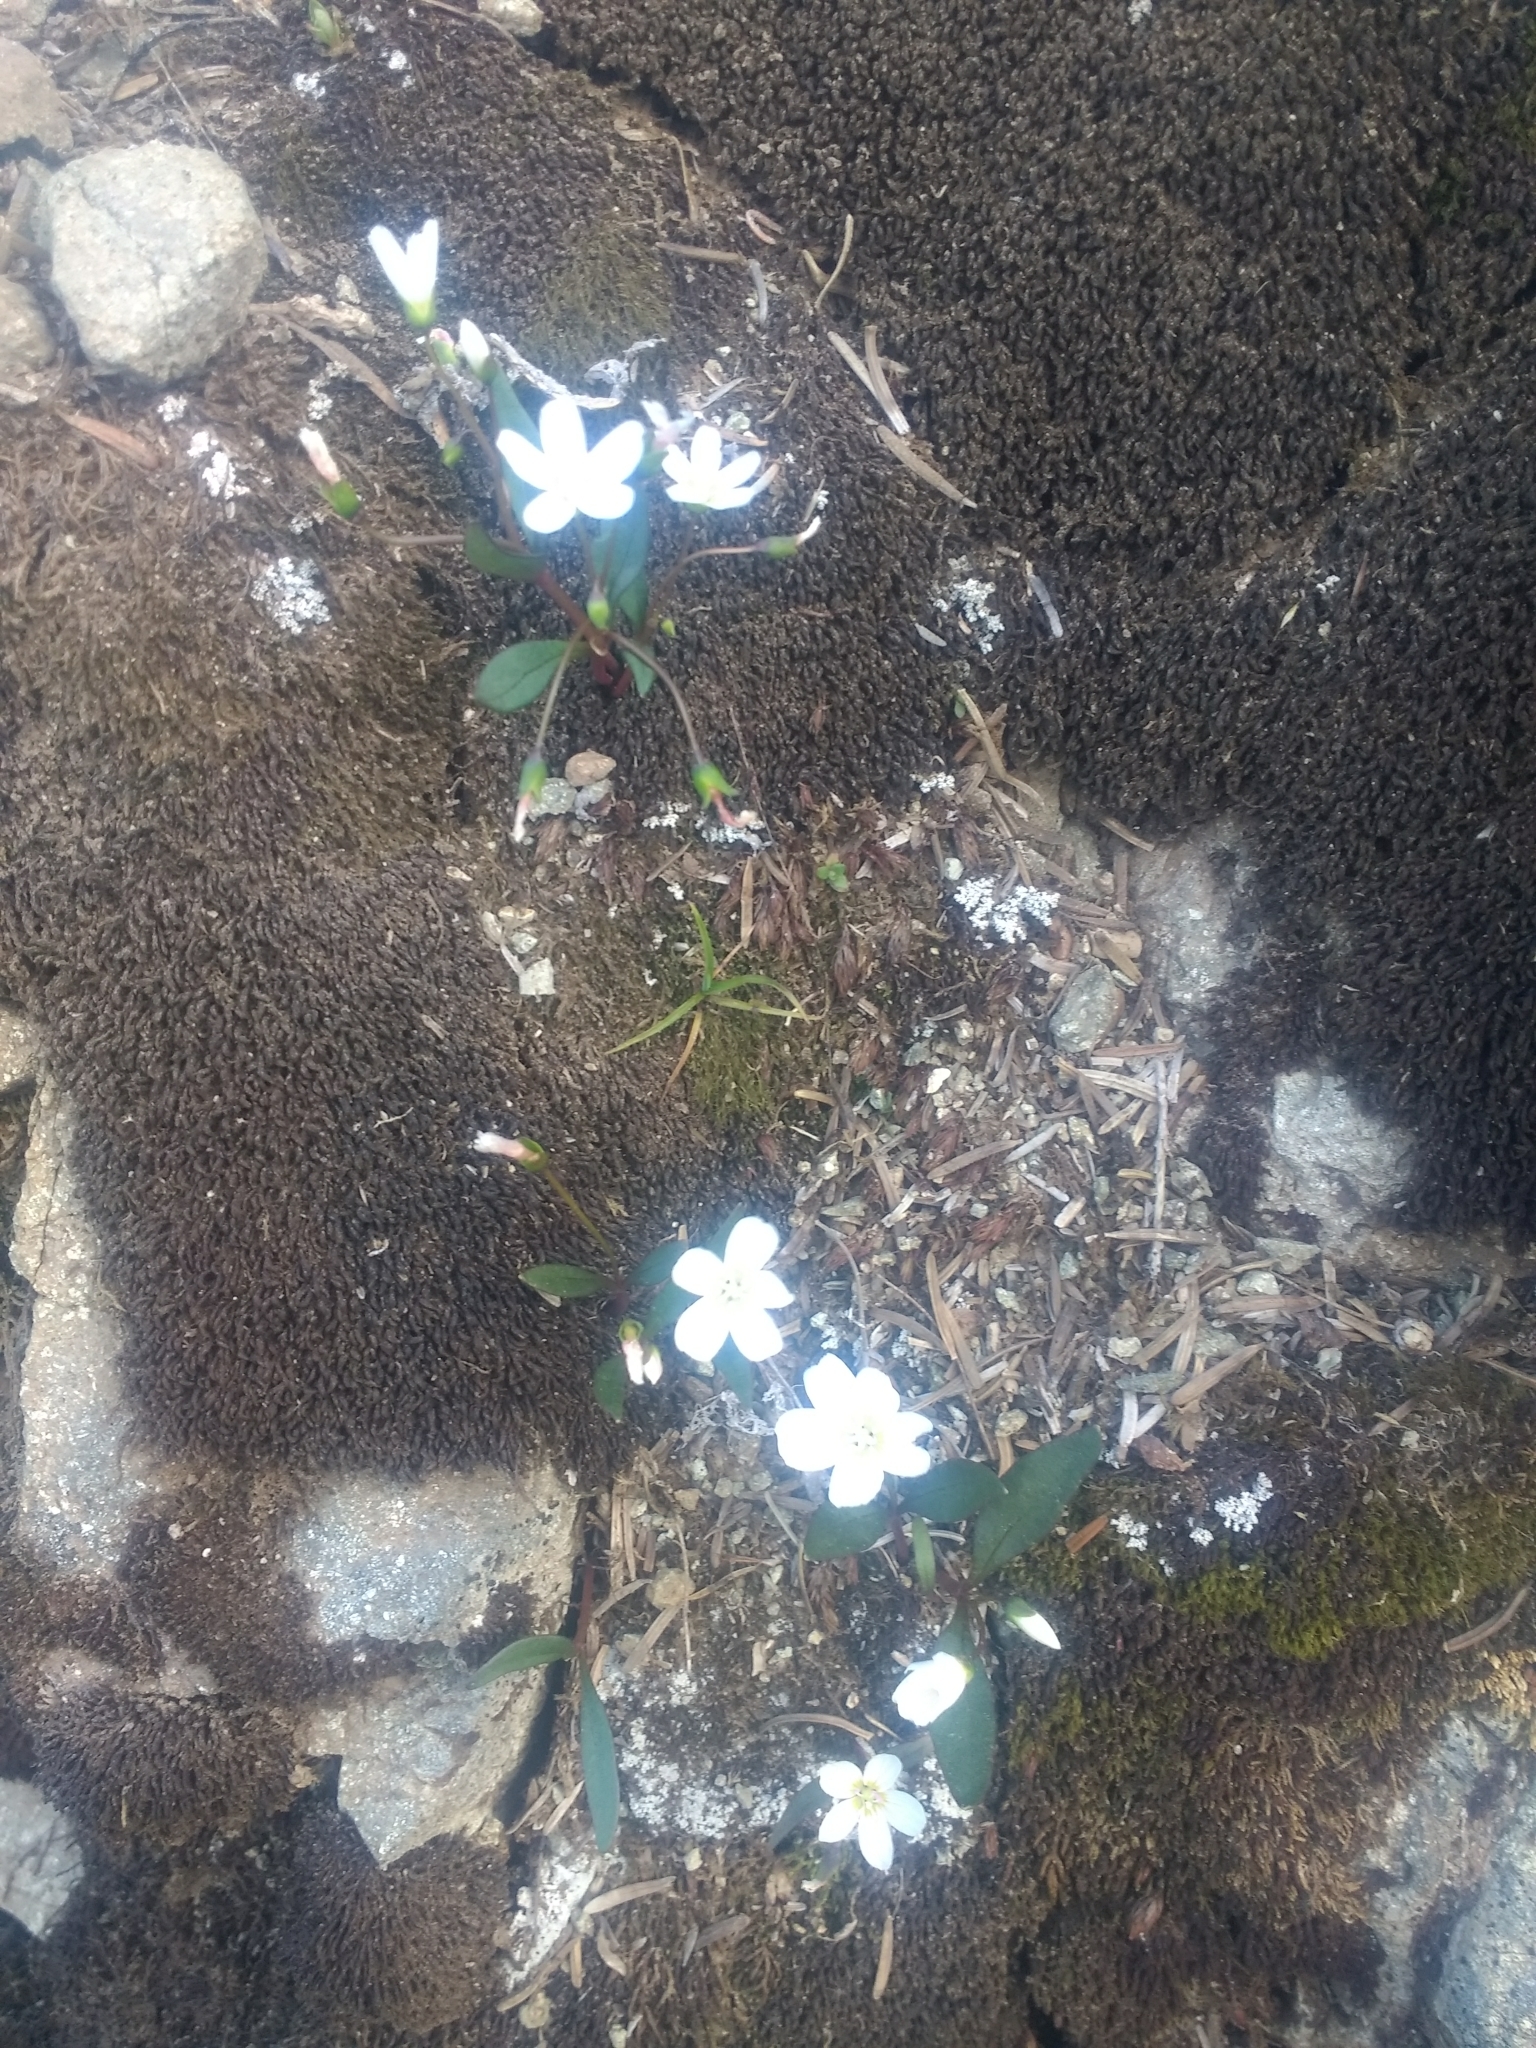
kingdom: Plantae
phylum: Tracheophyta
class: Magnoliopsida
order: Caryophyllales
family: Montiaceae
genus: Claytonia
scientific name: Claytonia multiscapa
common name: Lanceleaf springbeauty
